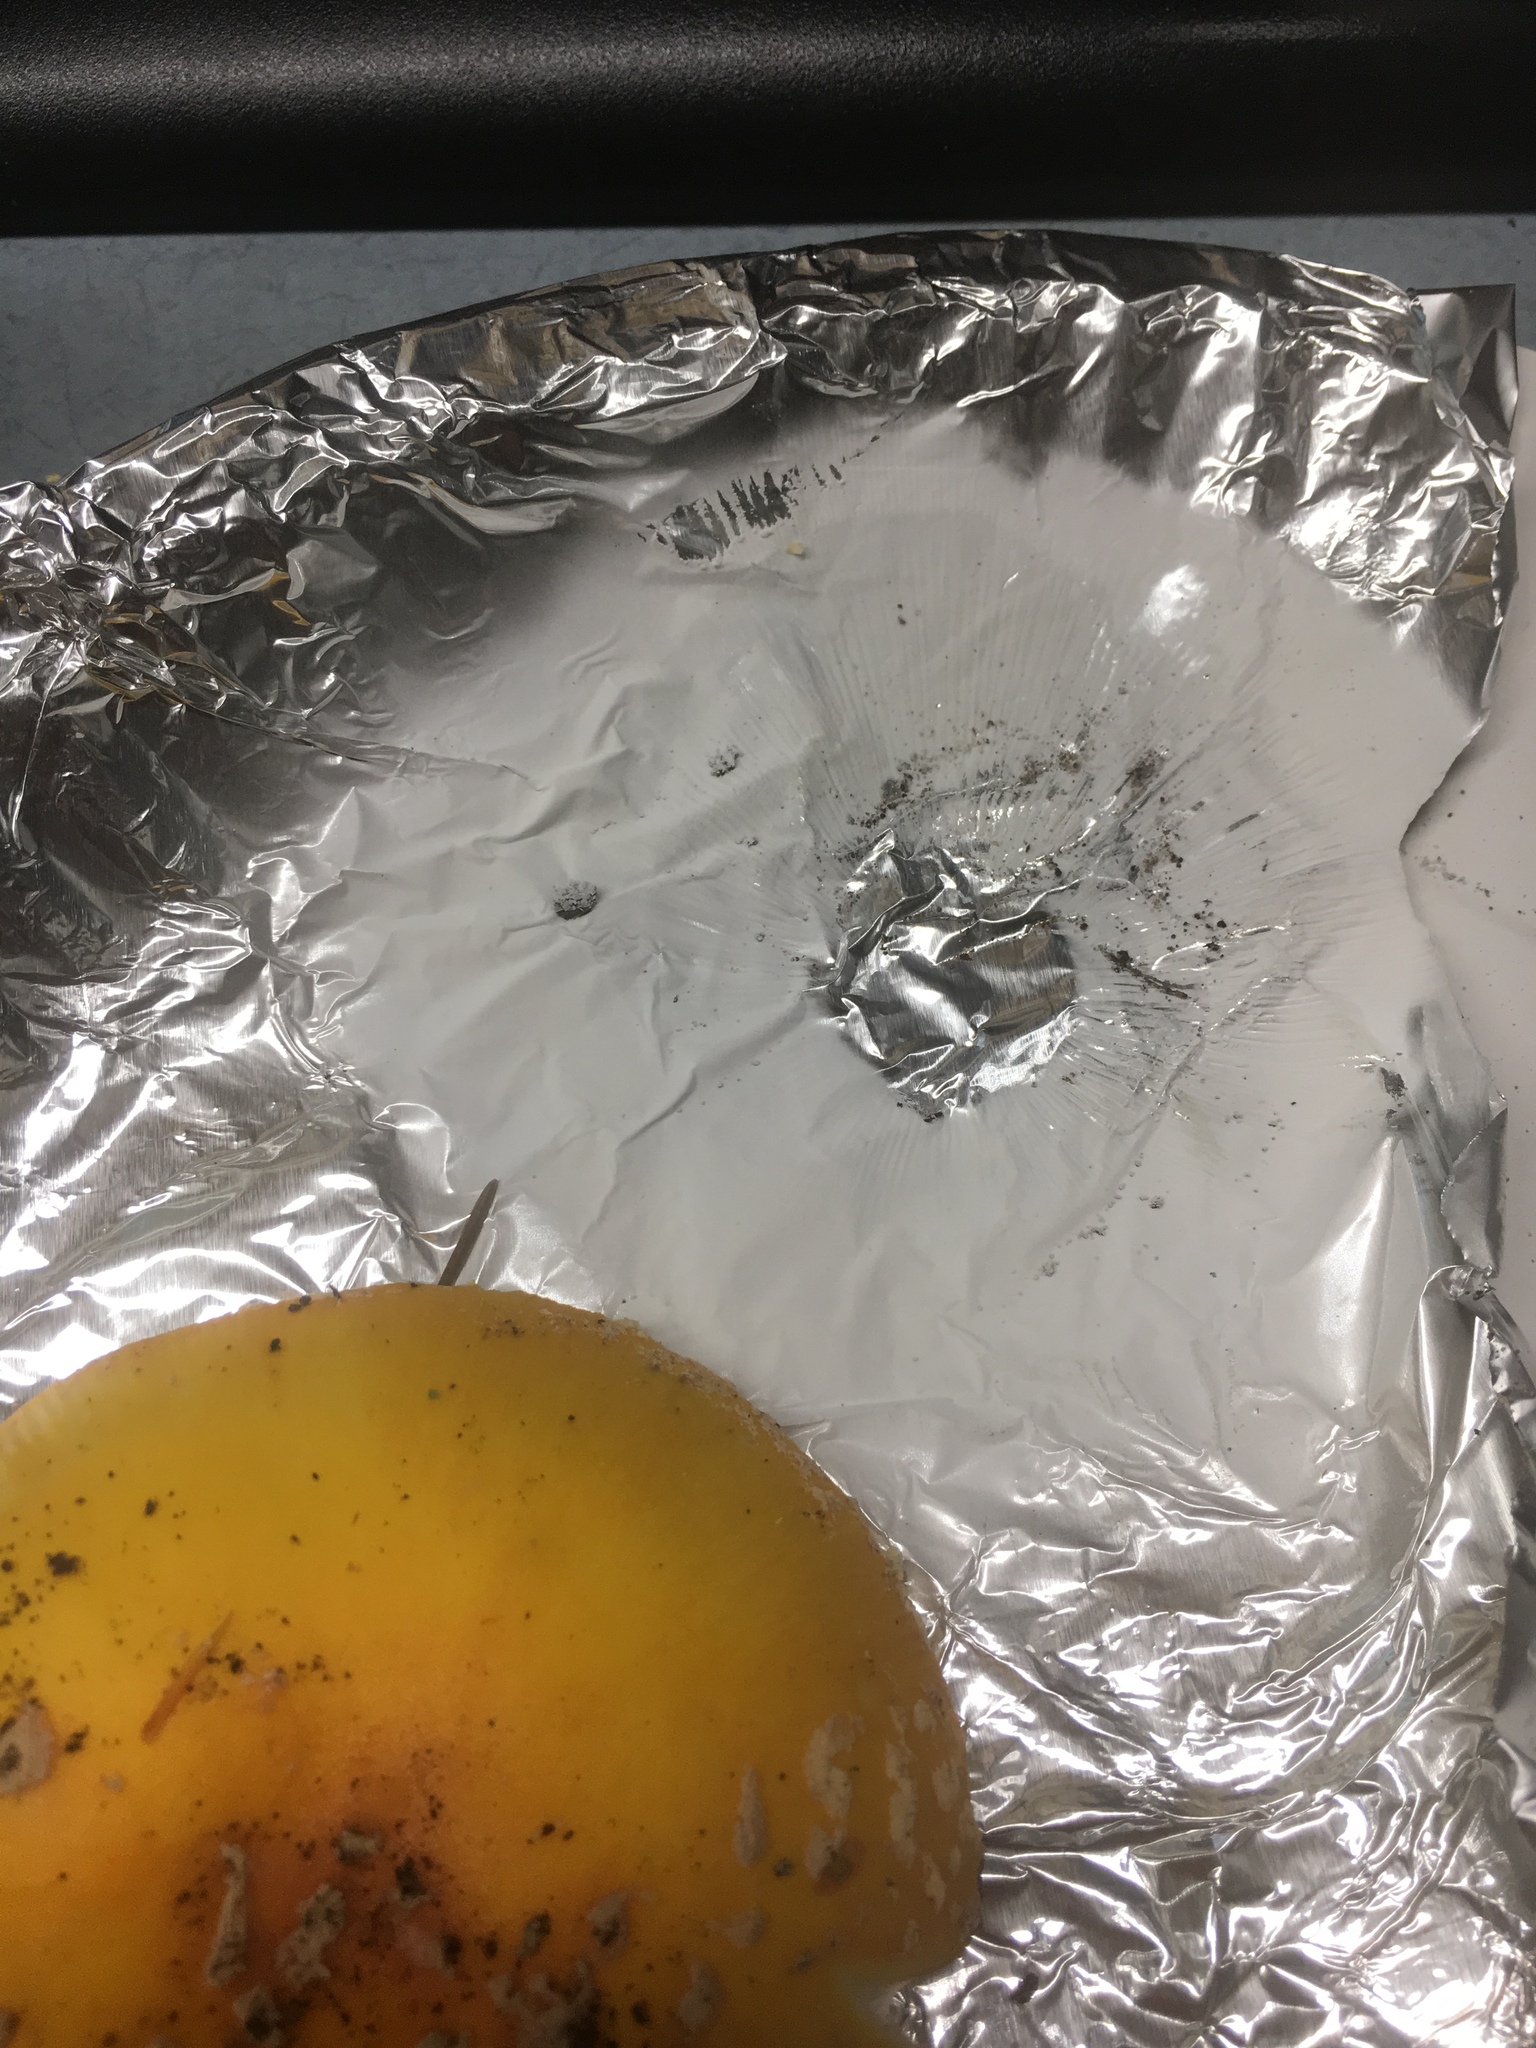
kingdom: Fungi
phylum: Basidiomycota
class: Agaricomycetes
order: Agaricales
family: Amanitaceae
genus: Amanita
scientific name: Amanita muscaria
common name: Fly agaric
